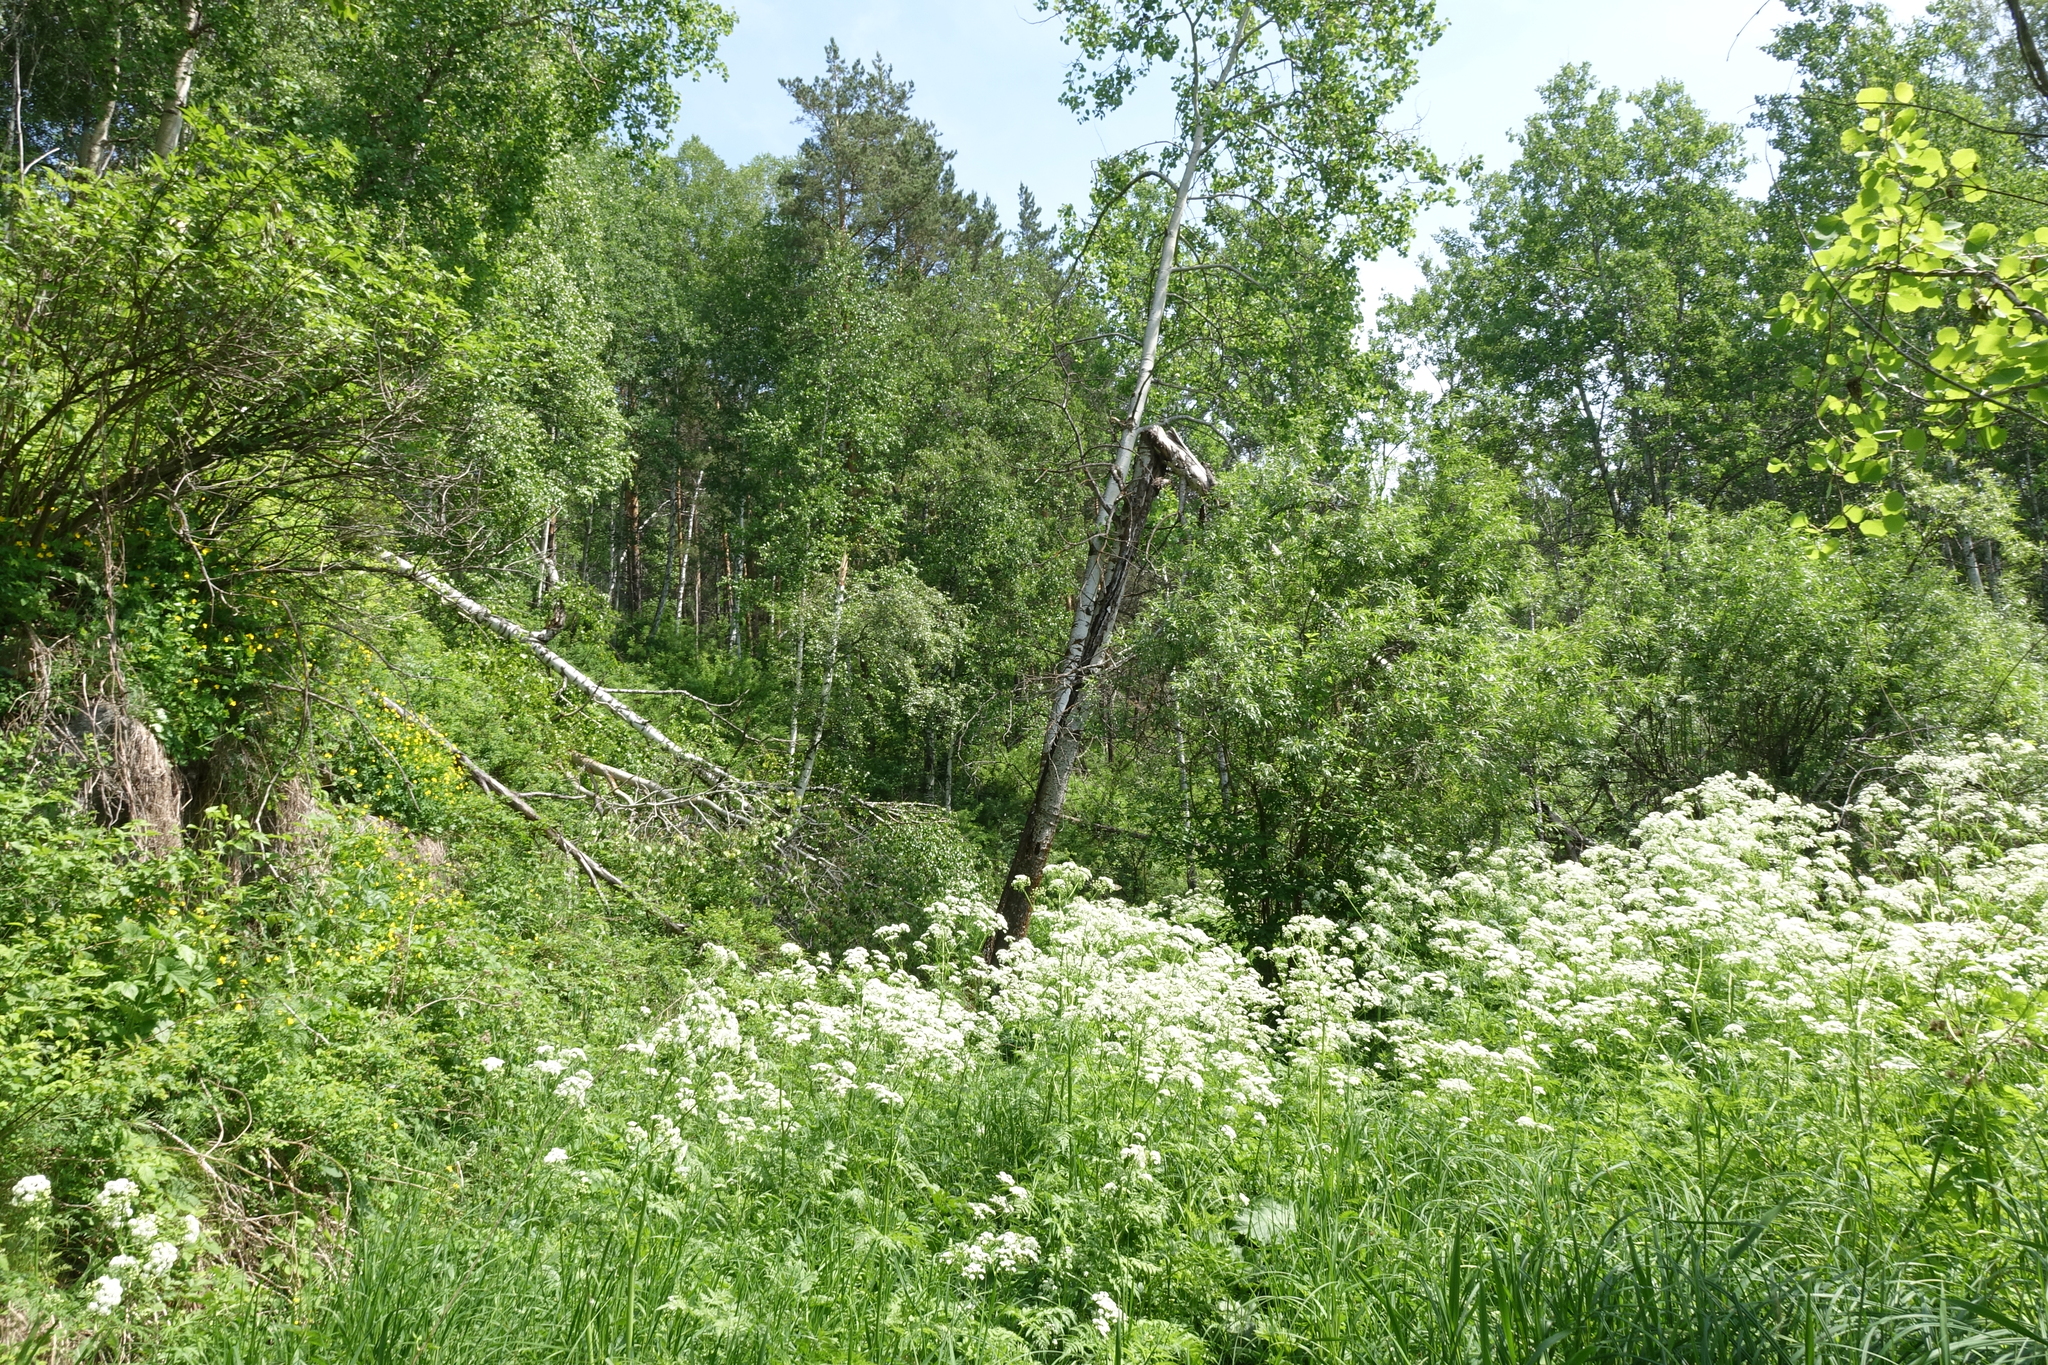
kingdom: Plantae
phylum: Tracheophyta
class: Magnoliopsida
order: Apiales
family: Apiaceae
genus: Anthriscus
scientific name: Anthriscus sylvestris
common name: Cow parsley
